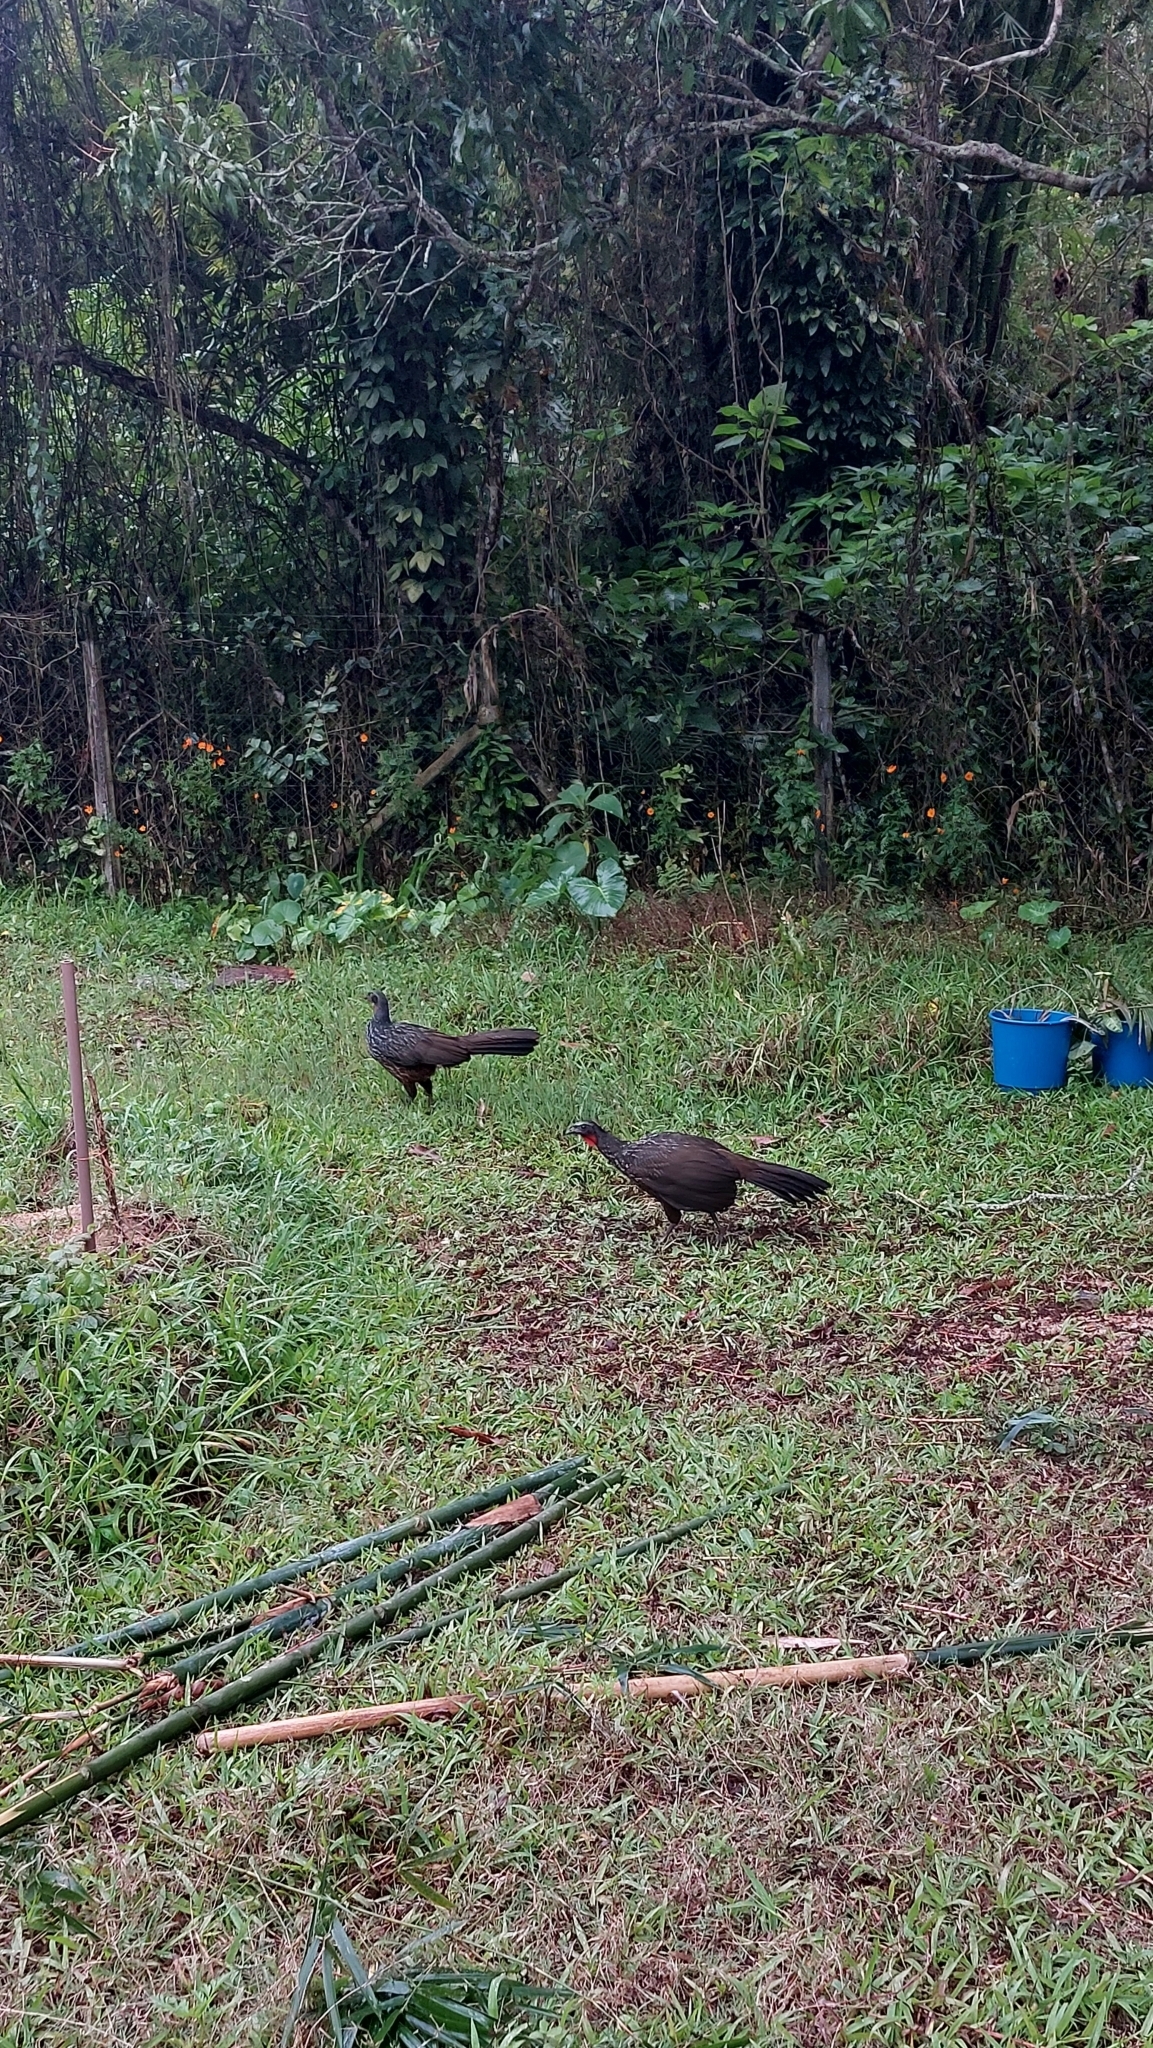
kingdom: Animalia
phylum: Chordata
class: Aves
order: Galliformes
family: Cracidae
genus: Penelope
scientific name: Penelope obscura
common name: Dusky-legged guan
